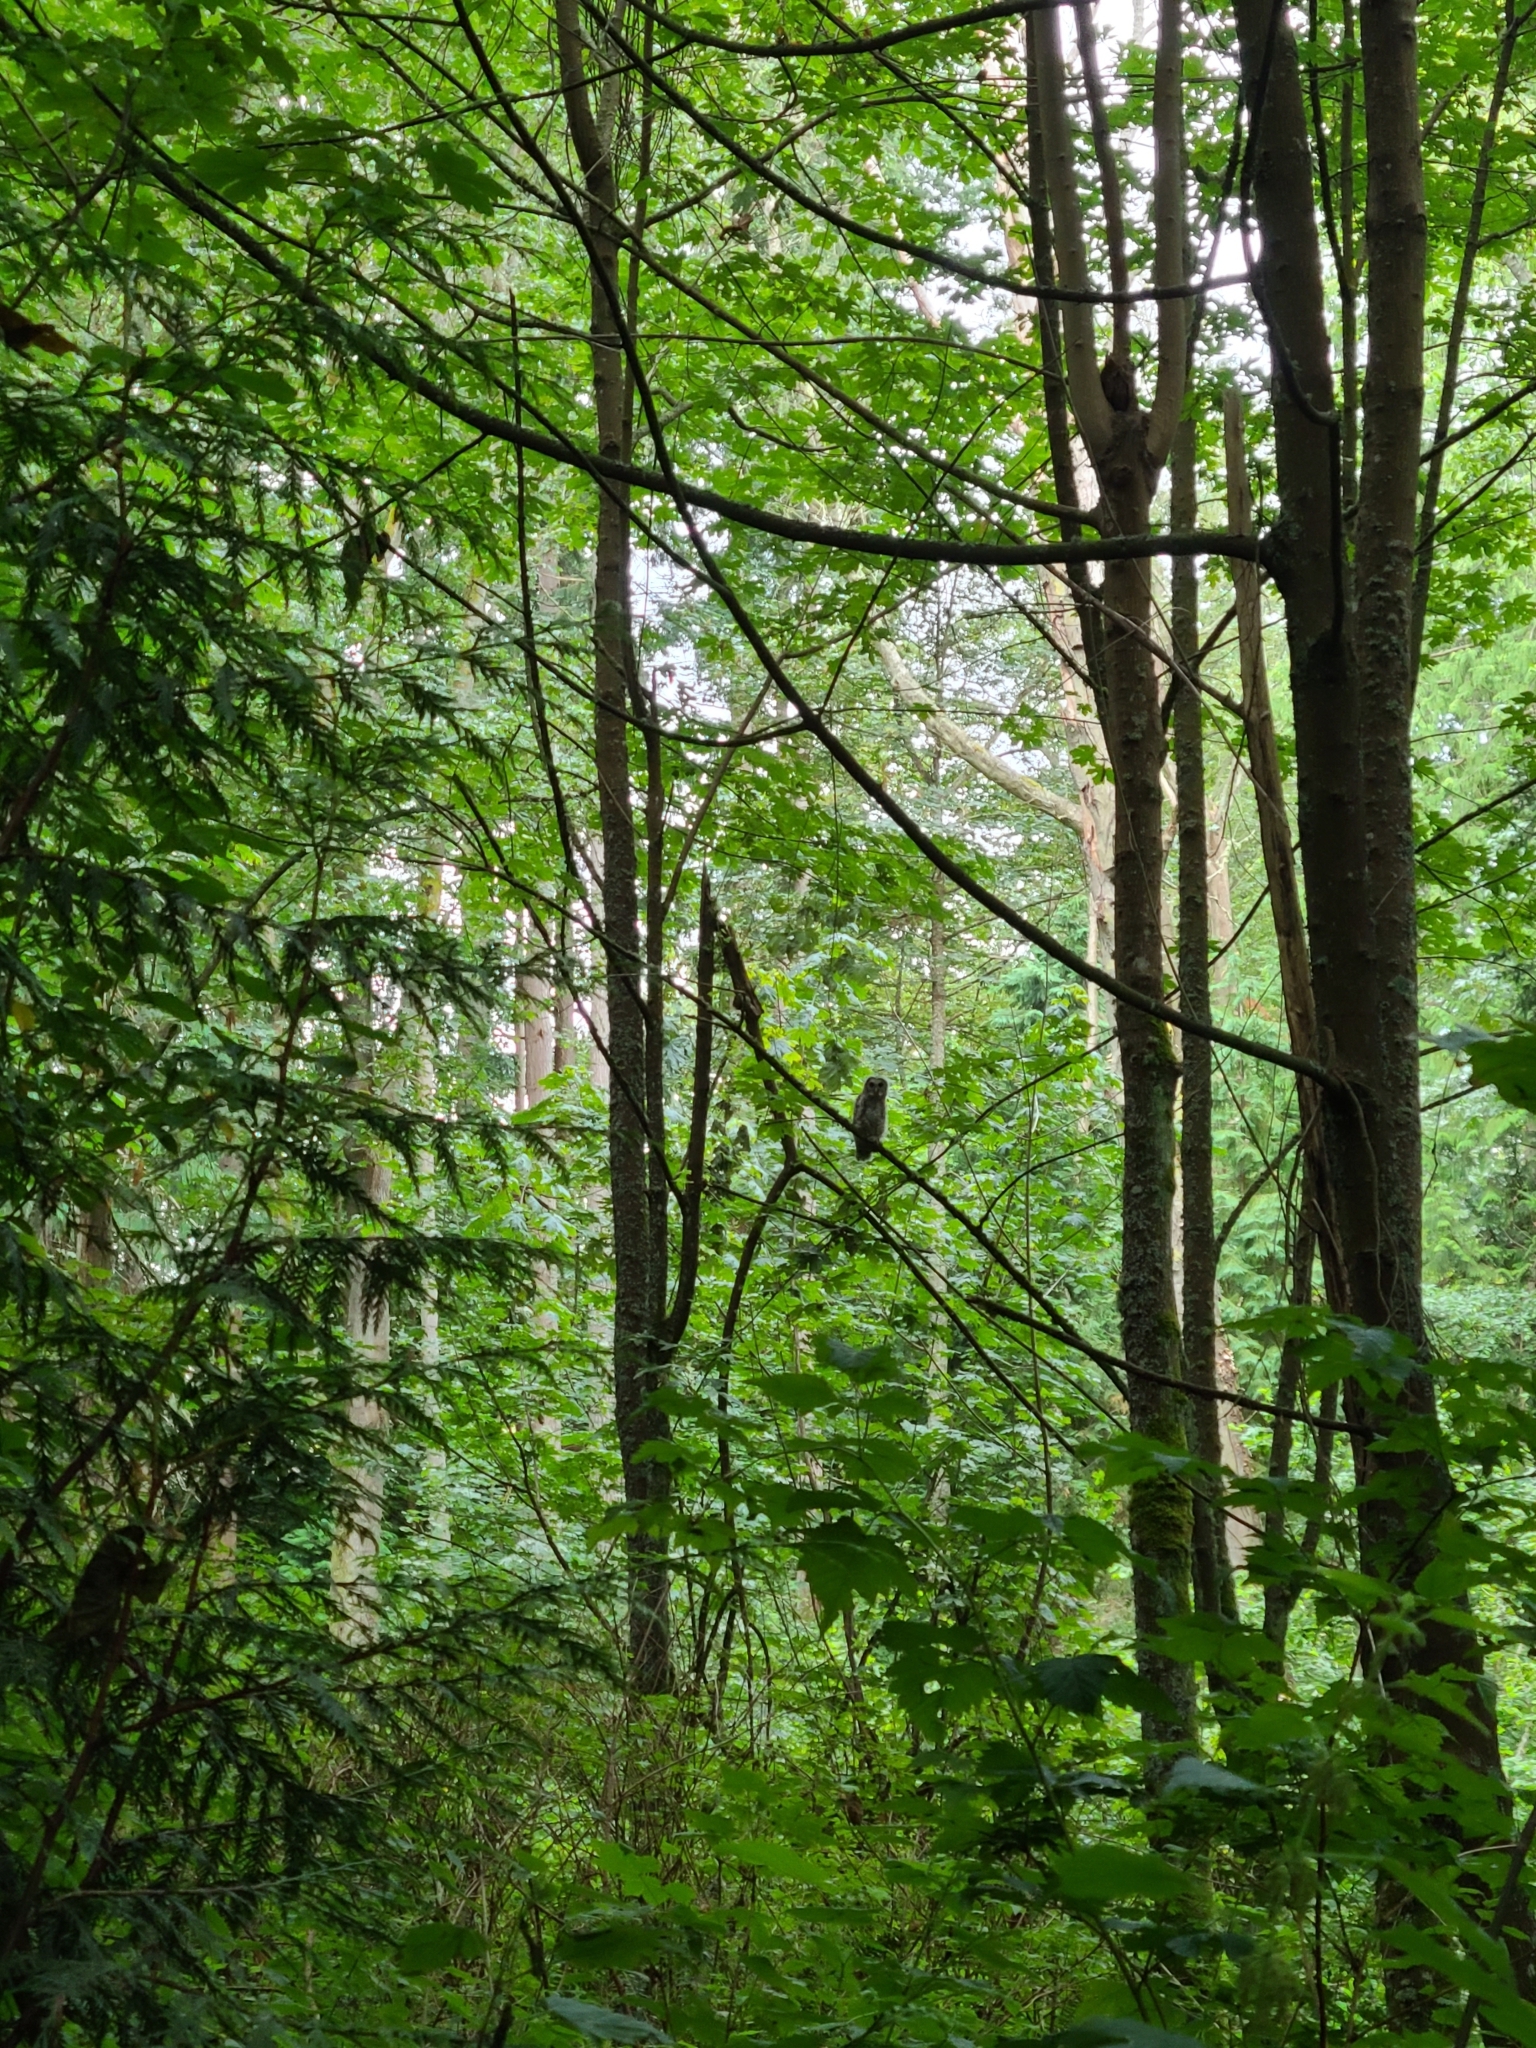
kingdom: Animalia
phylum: Chordata
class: Aves
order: Strigiformes
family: Strigidae
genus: Strix
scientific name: Strix varia
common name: Barred owl
